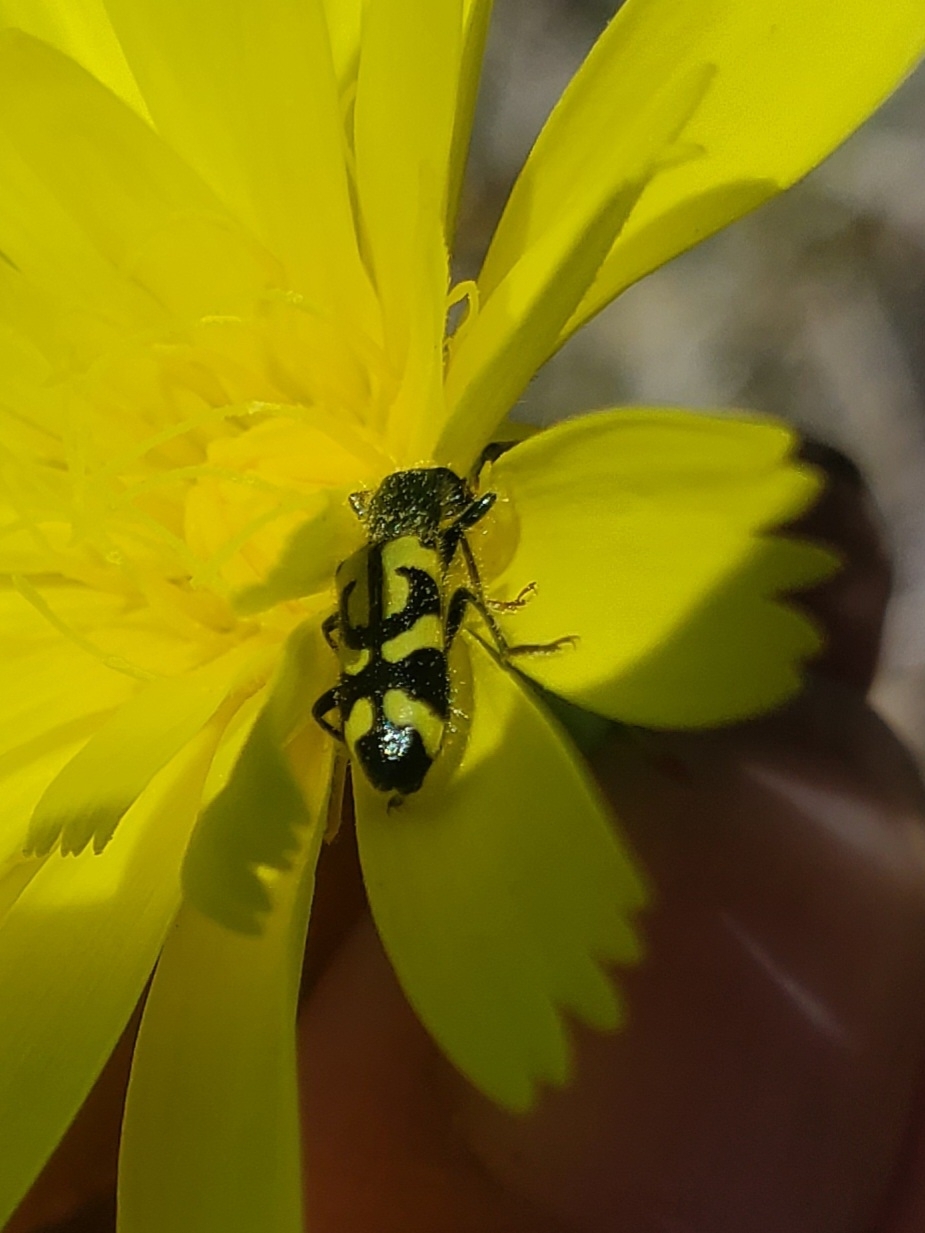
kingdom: Animalia
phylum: Arthropoda
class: Insecta
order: Coleoptera
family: Cleridae
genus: Trichodes
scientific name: Trichodes ornatus
